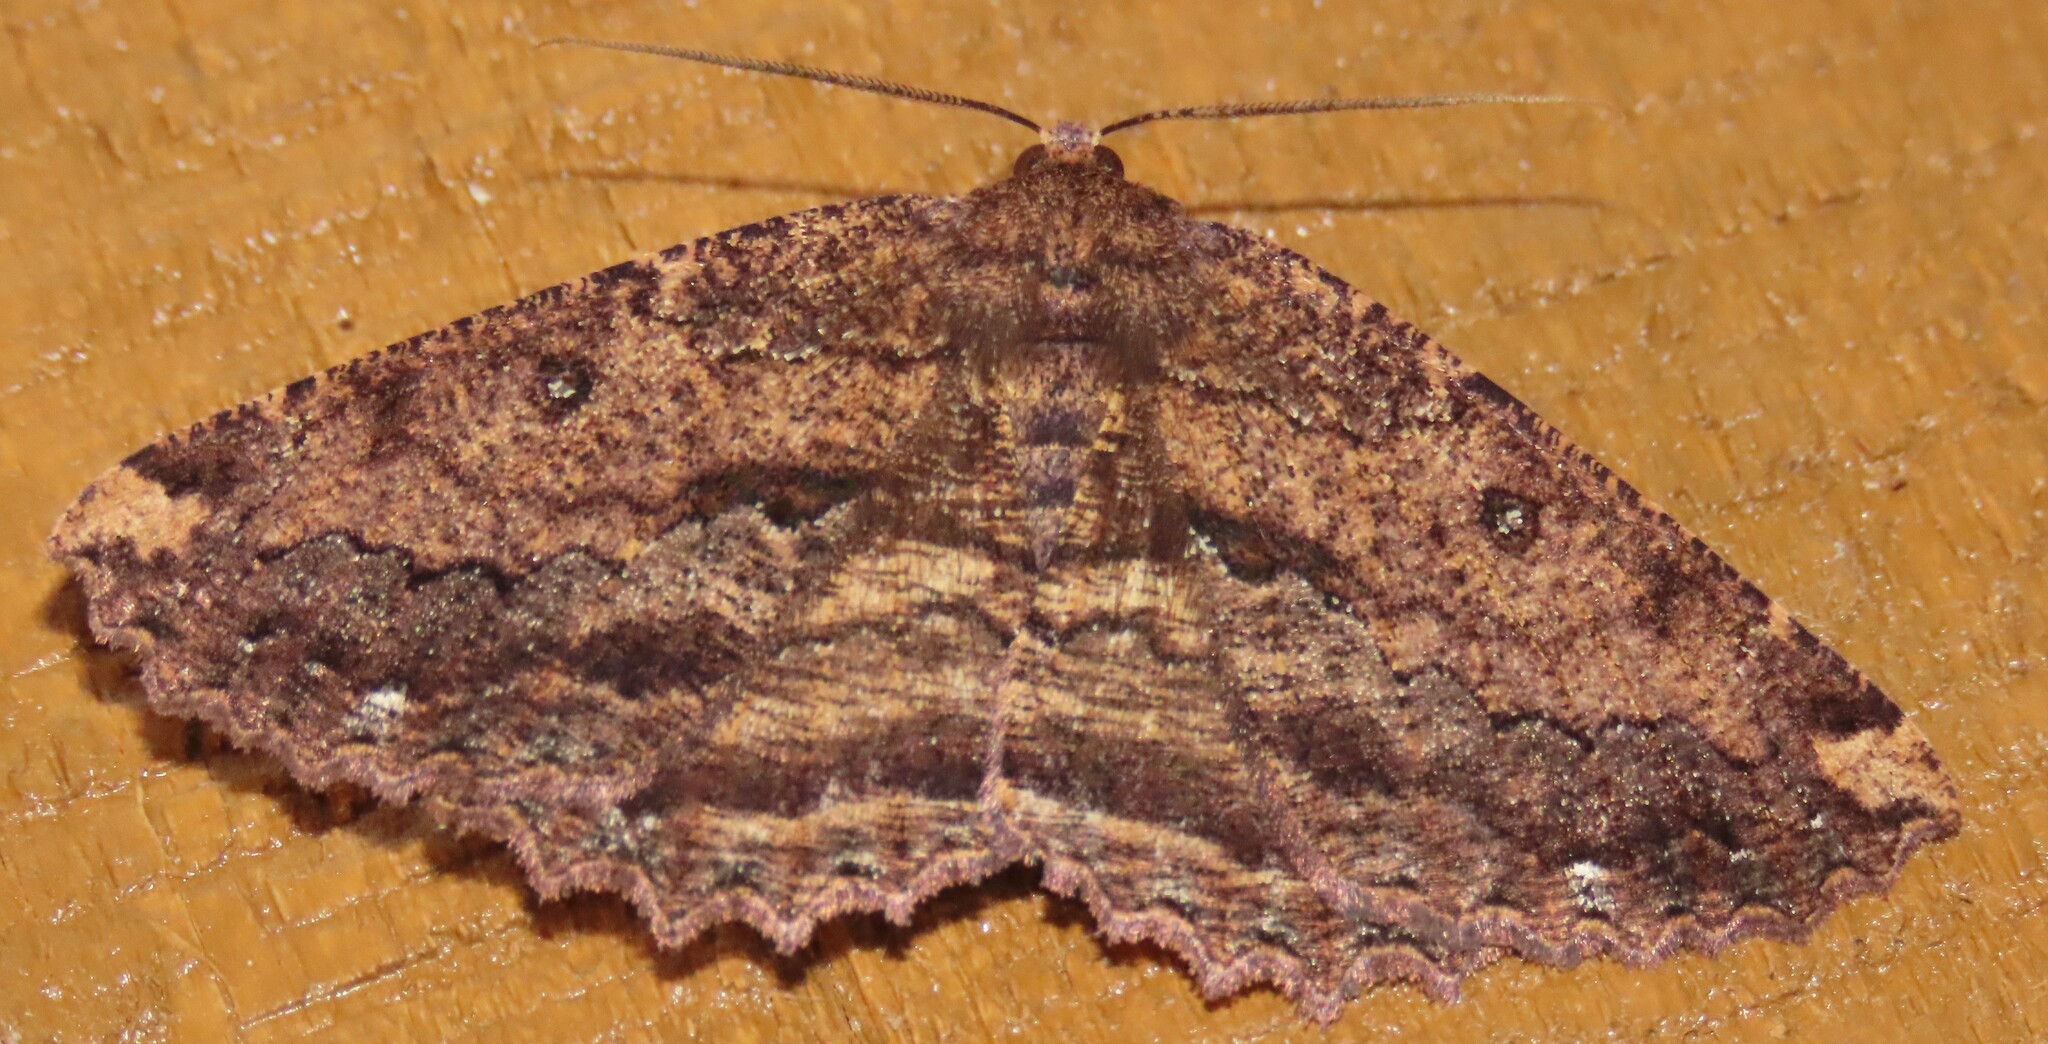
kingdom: Animalia
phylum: Arthropoda
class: Insecta
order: Lepidoptera
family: Geometridae
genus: Gellonia
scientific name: Gellonia pannularia
